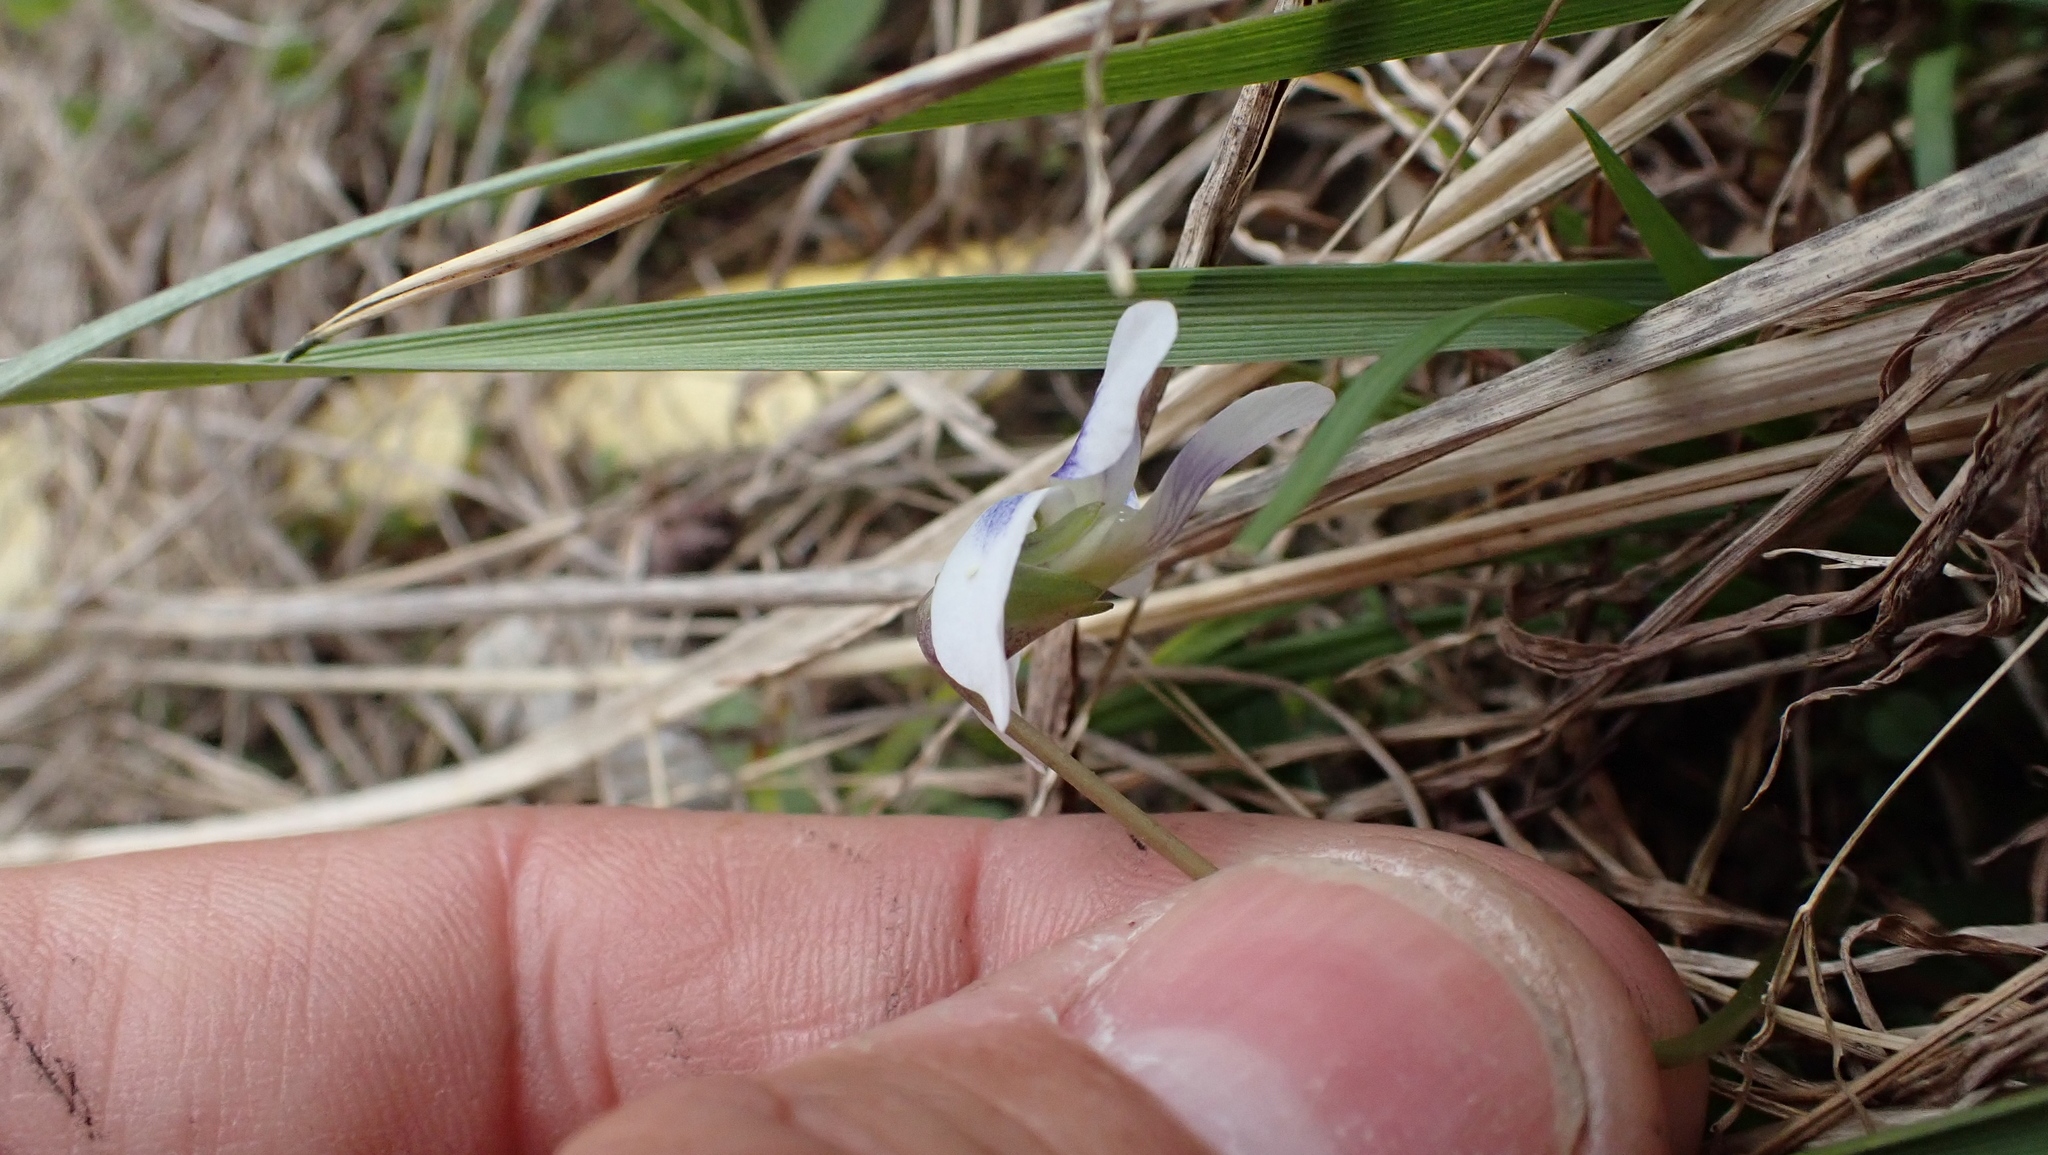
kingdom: Plantae
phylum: Tracheophyta
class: Magnoliopsida
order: Malpighiales
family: Violaceae
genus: Viola
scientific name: Viola sororia
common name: Dooryard violet
